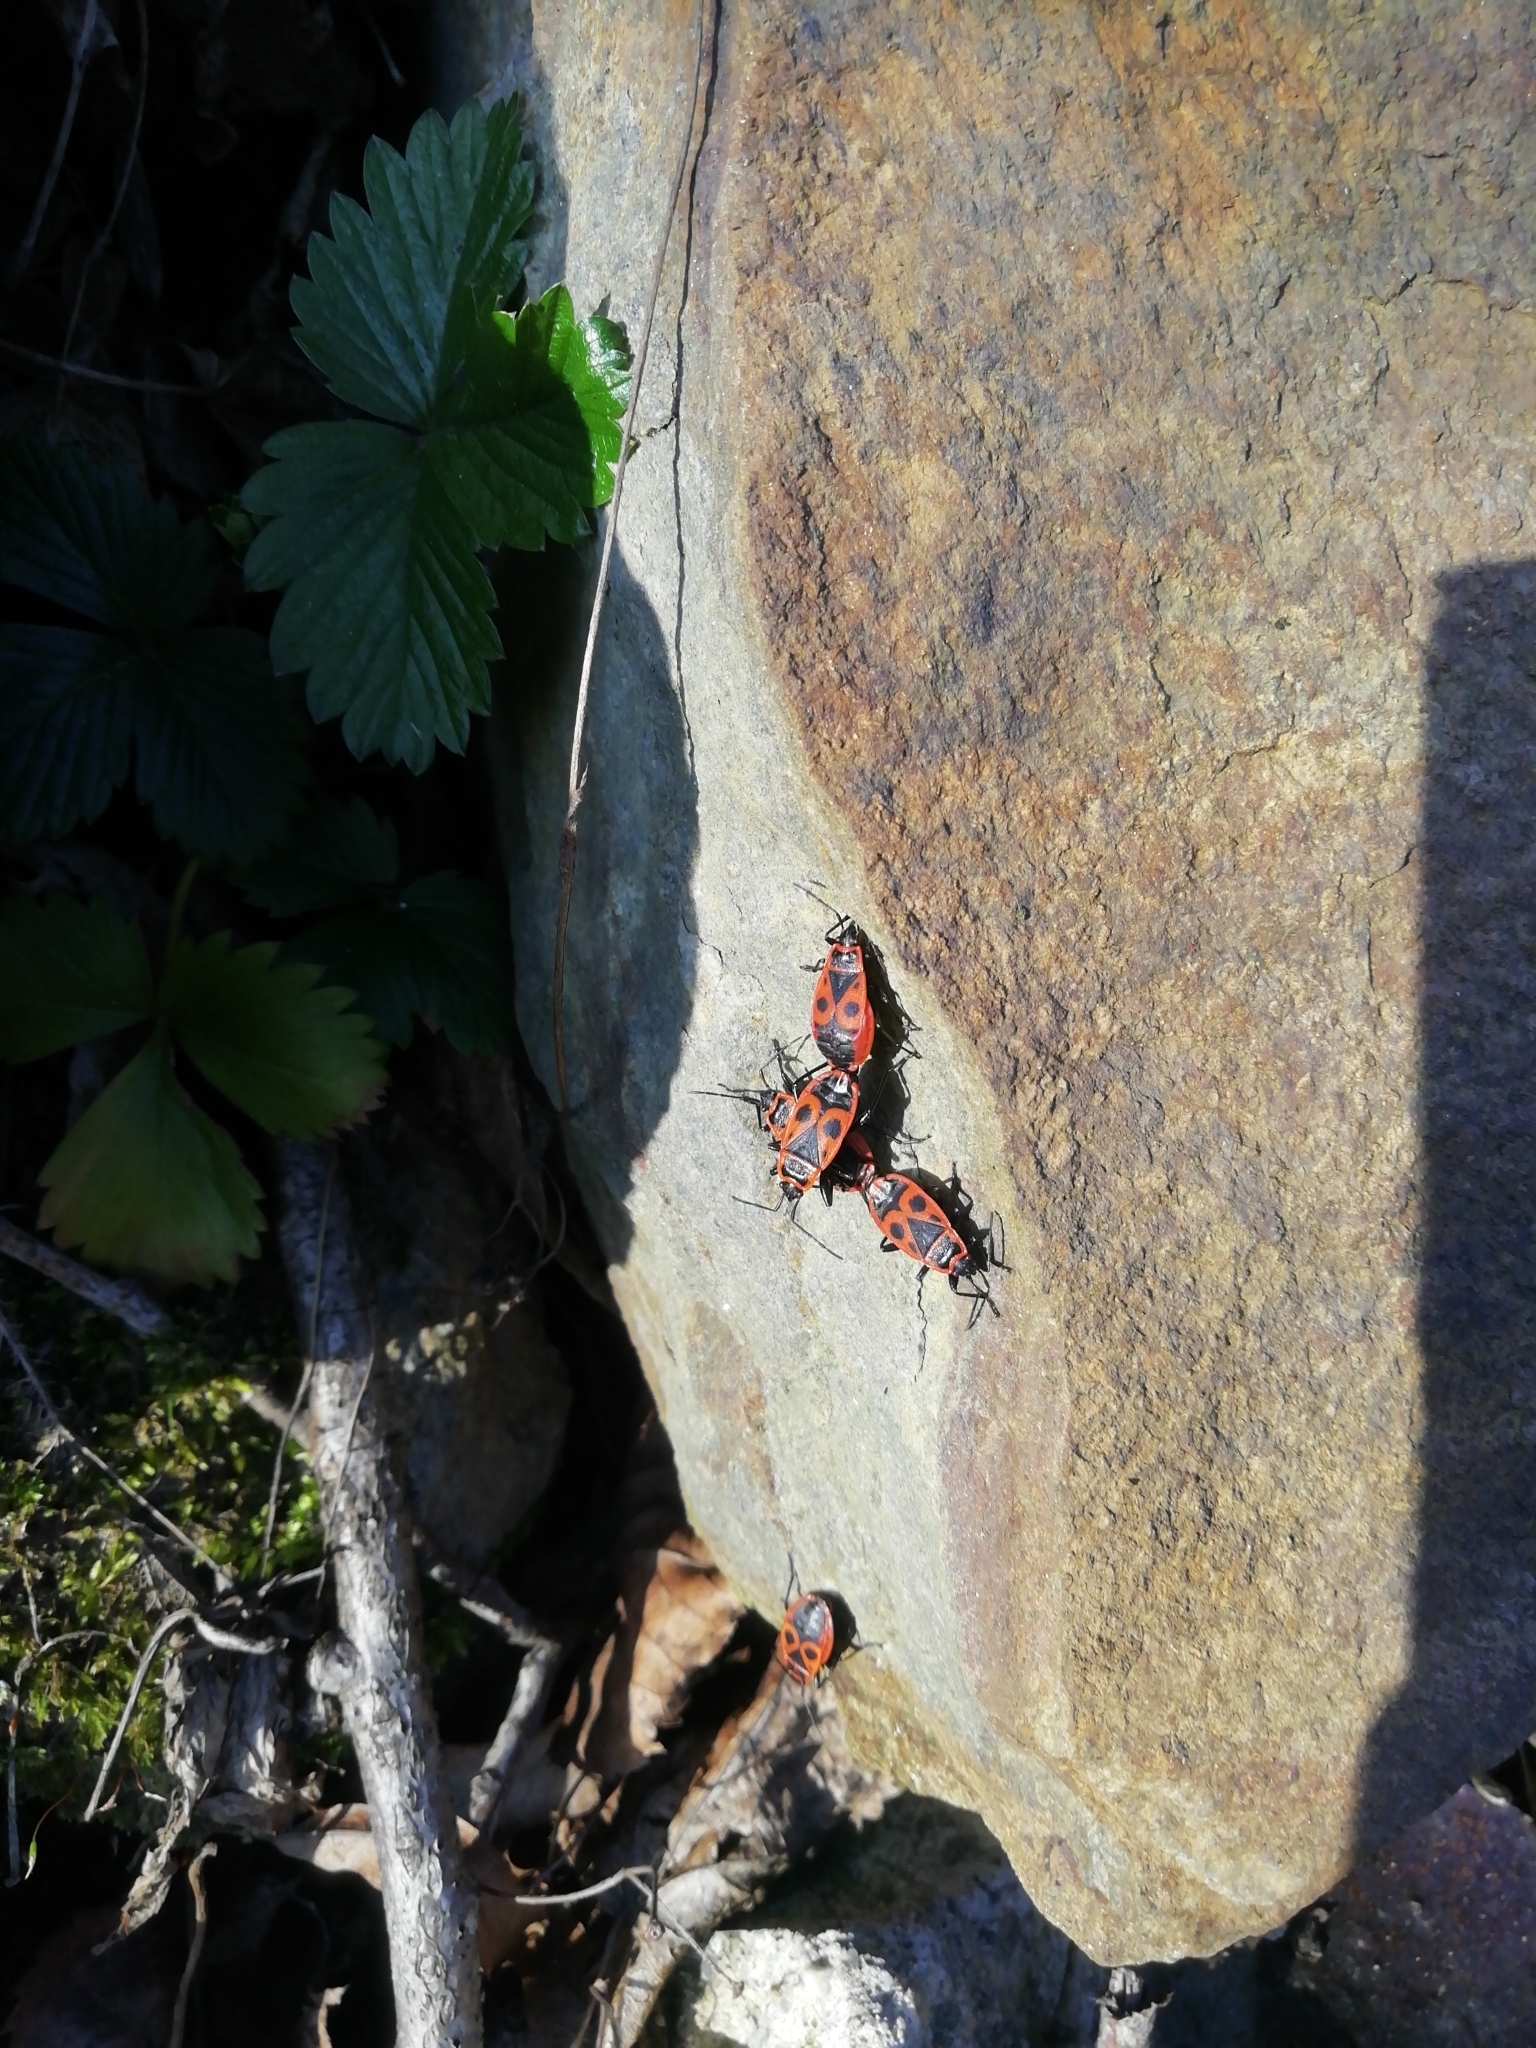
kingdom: Animalia
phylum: Arthropoda
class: Insecta
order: Hemiptera
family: Pyrrhocoridae
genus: Pyrrhocoris
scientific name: Pyrrhocoris apterus
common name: Firebug
